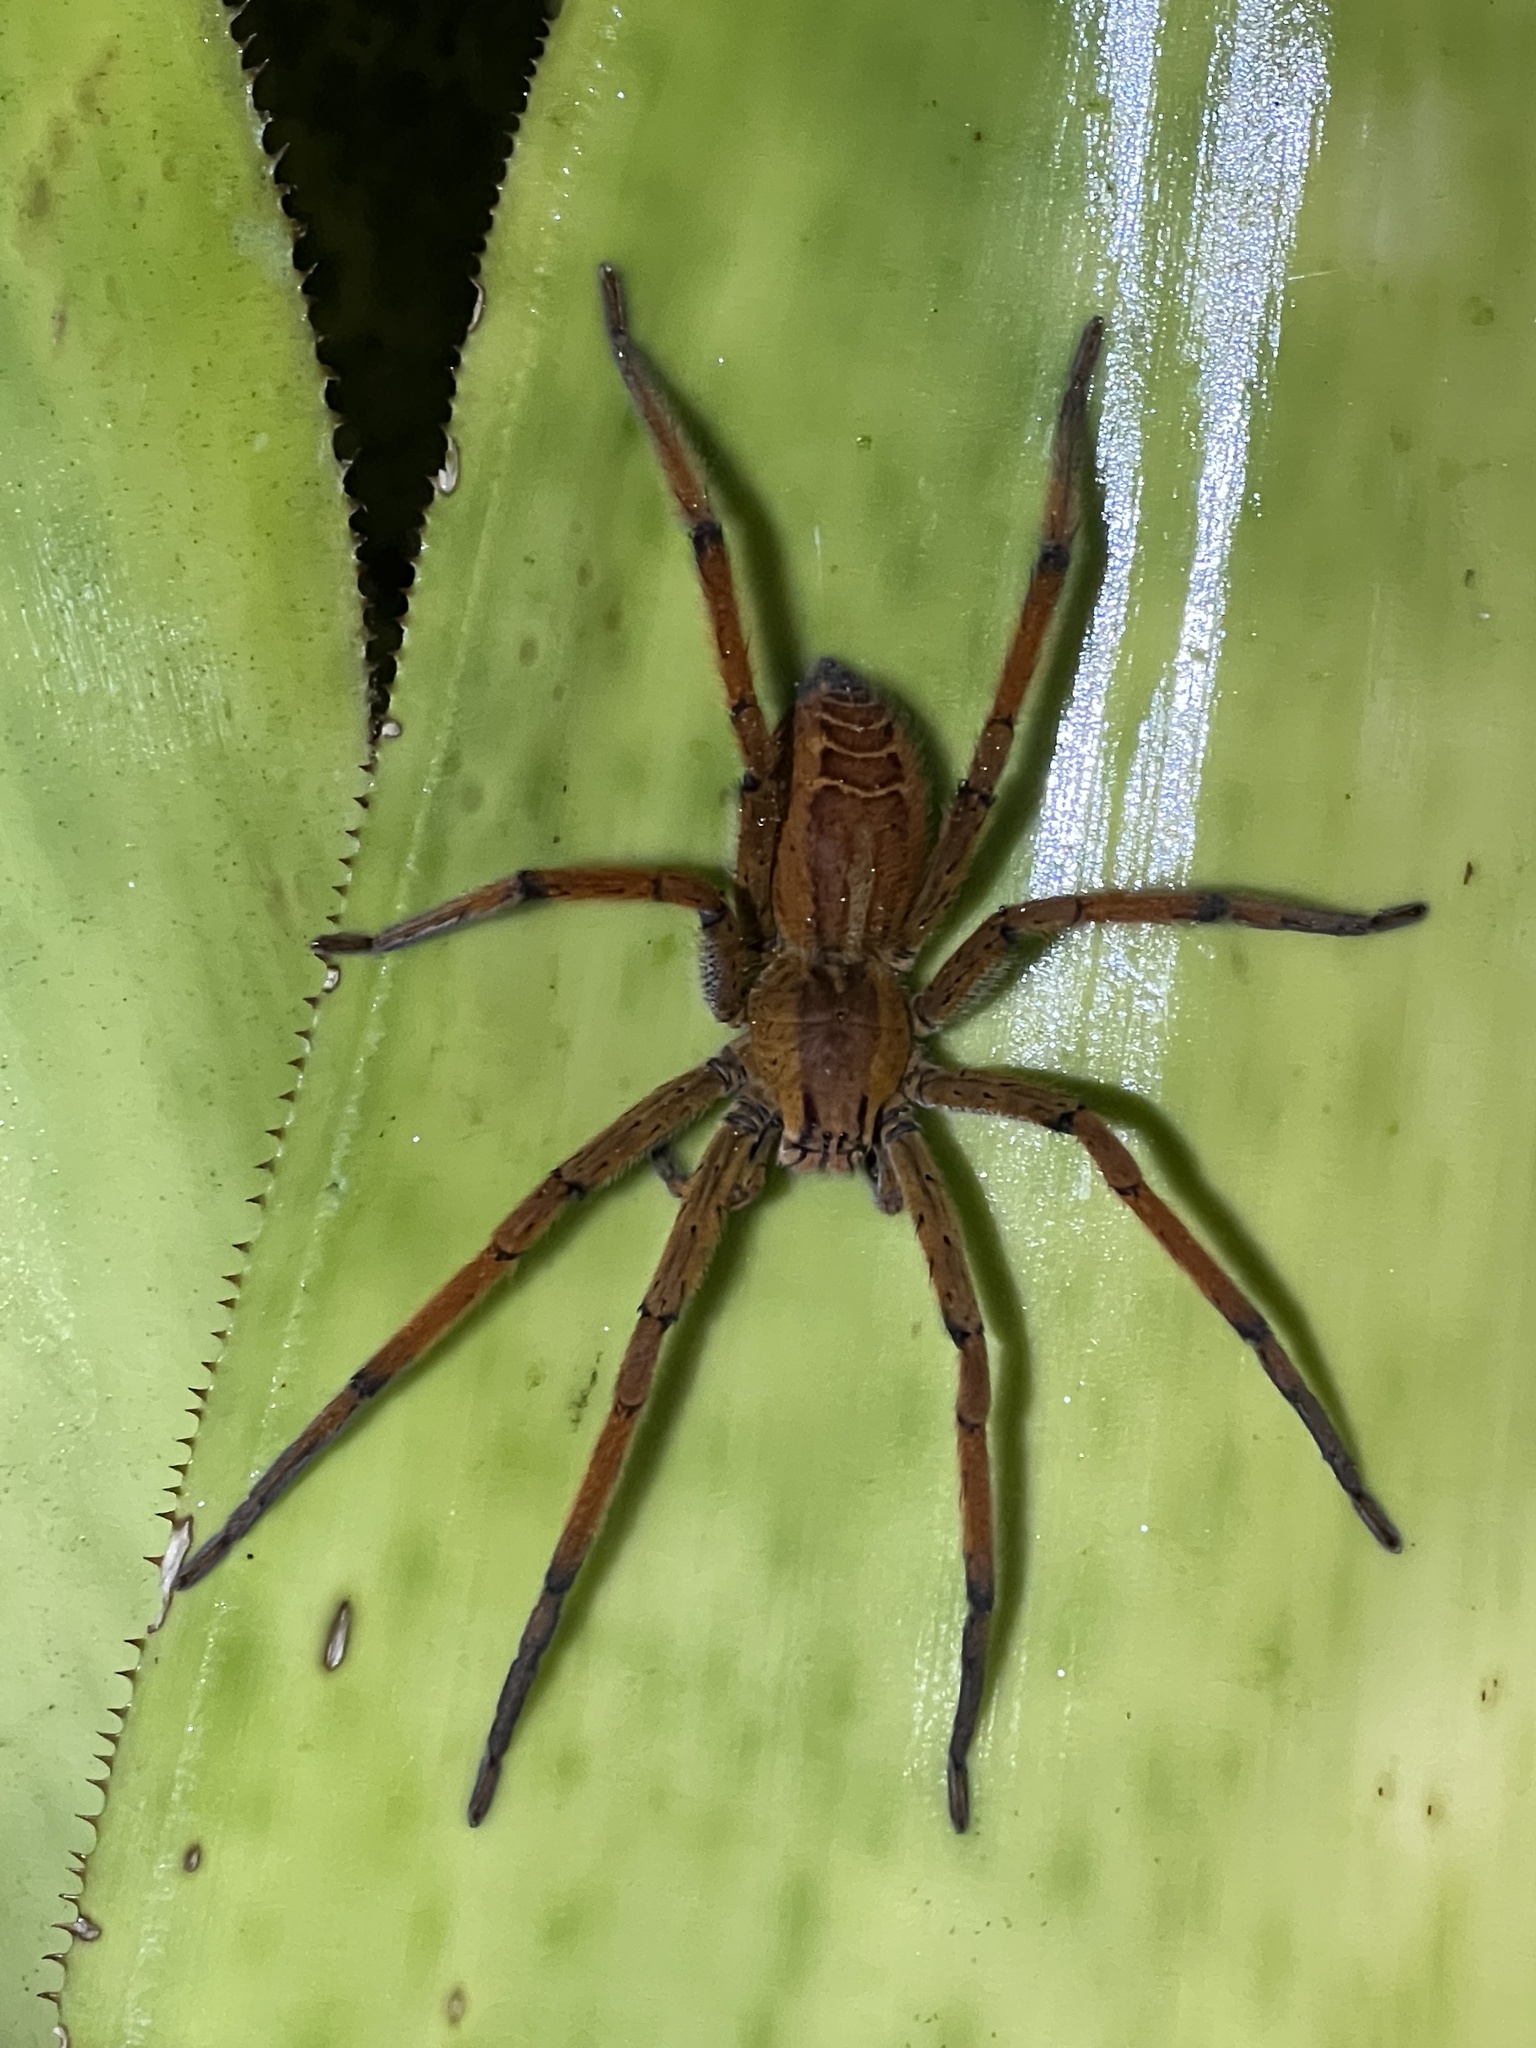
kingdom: Animalia
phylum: Arthropoda
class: Arachnida
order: Araneae
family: Trechaleidae
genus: Cupiennius
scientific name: Cupiennius getazi
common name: Wandering spiders
